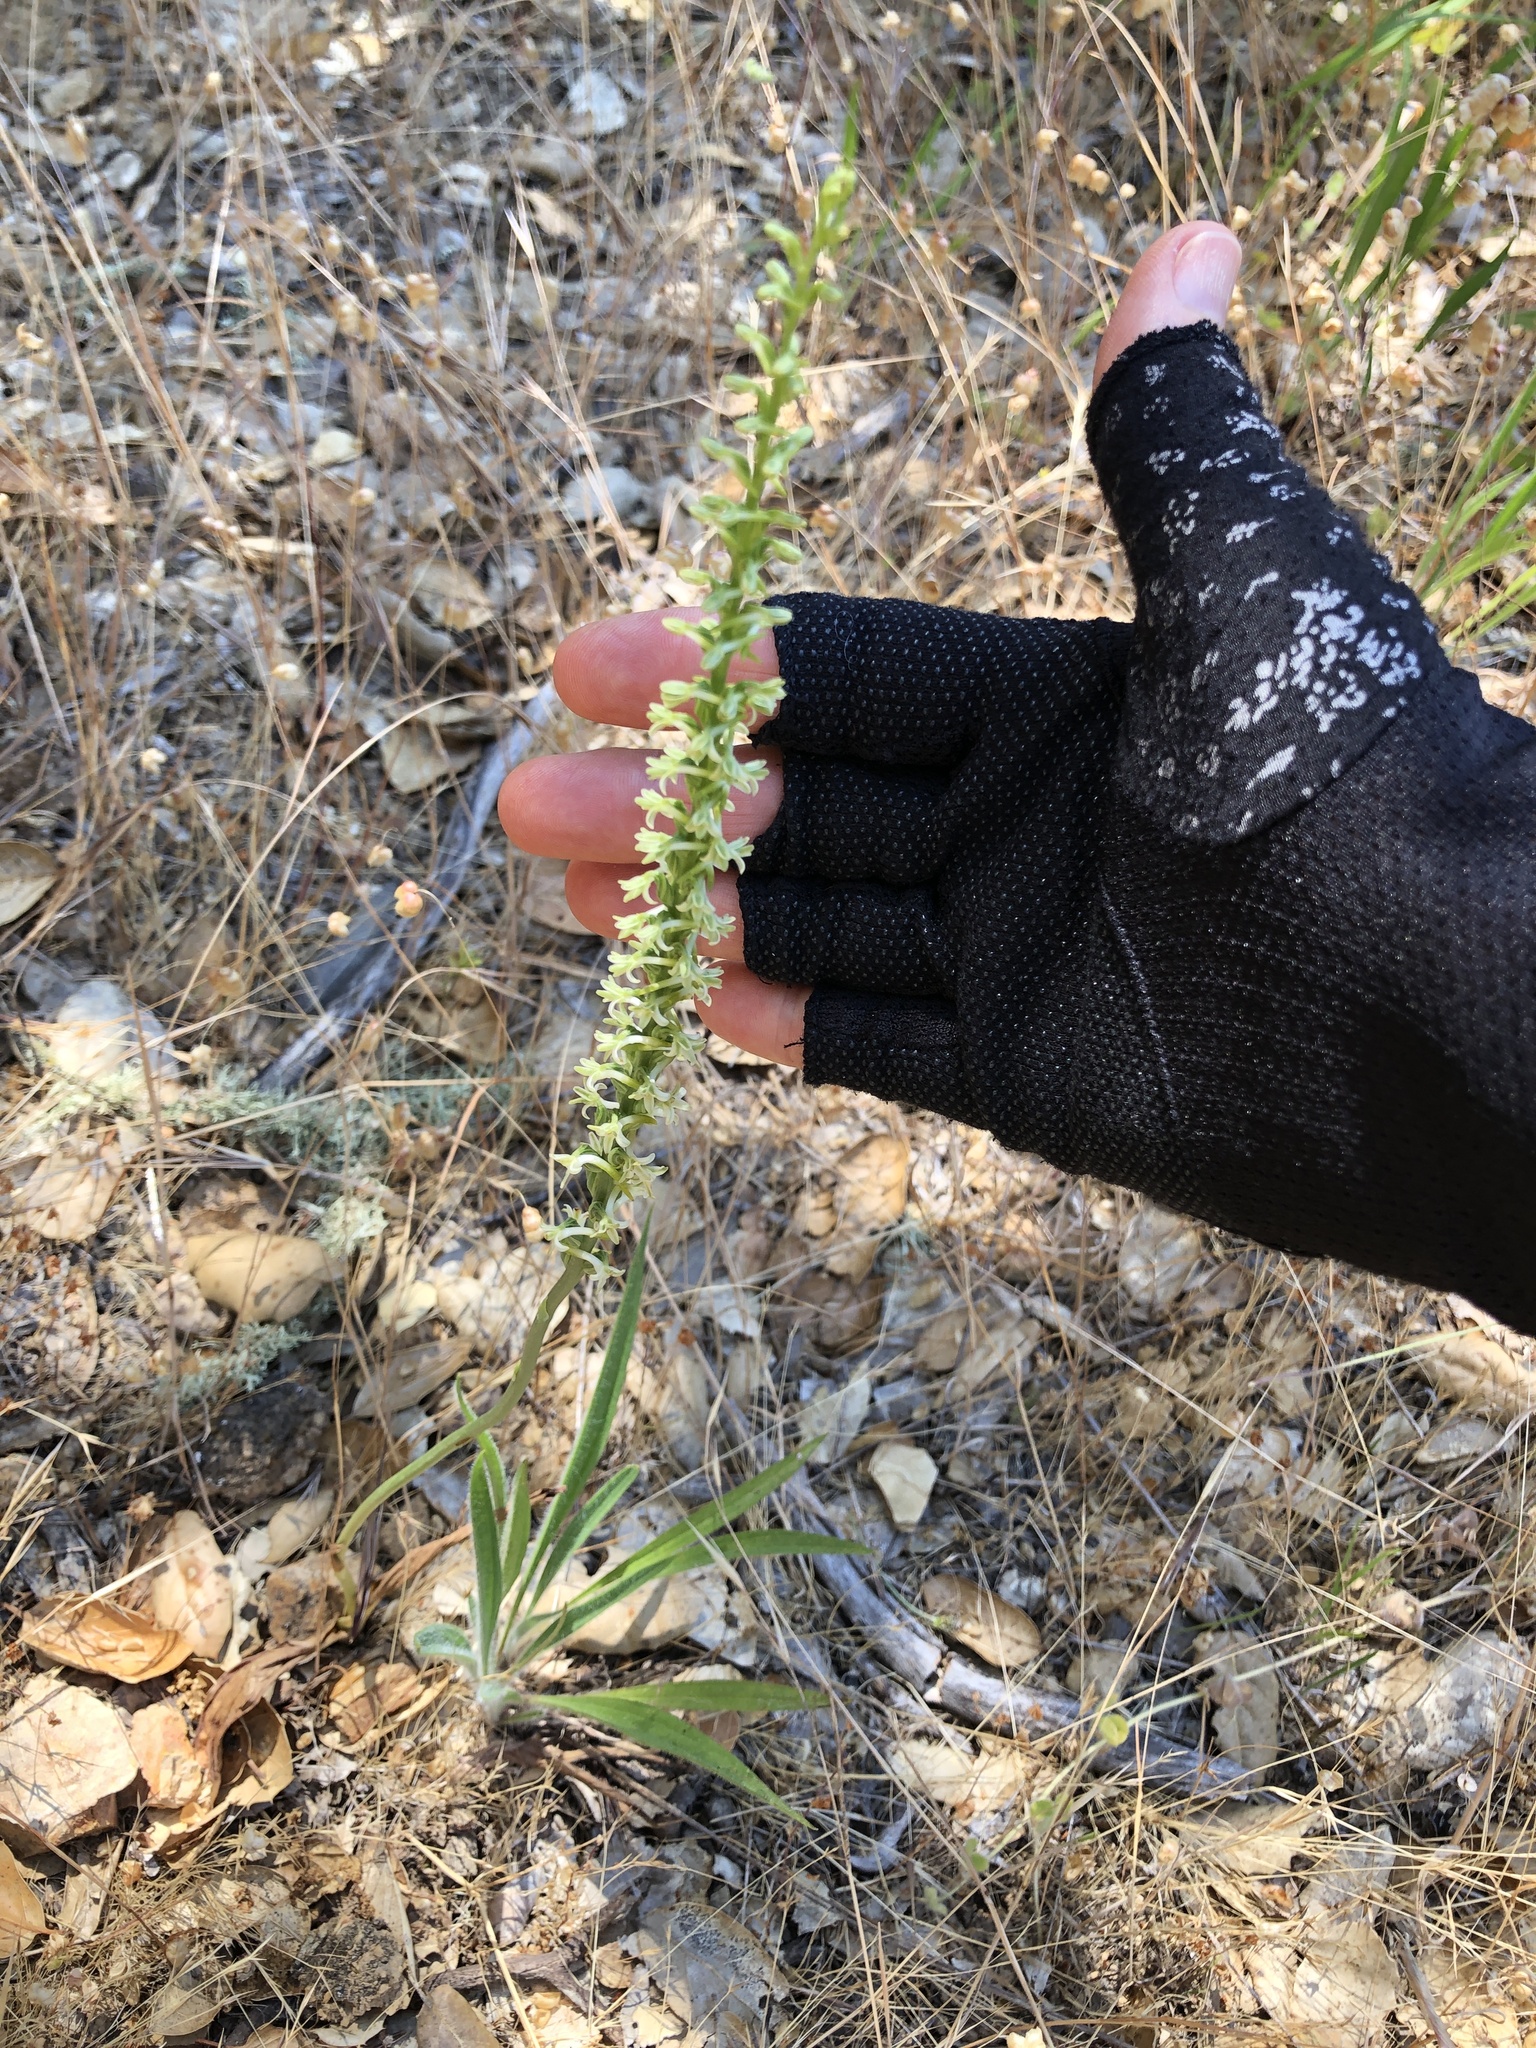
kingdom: Plantae
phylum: Tracheophyta
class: Liliopsida
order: Asparagales
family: Orchidaceae
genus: Platanthera
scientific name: Platanthera transversa
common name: Royal rein orchid
